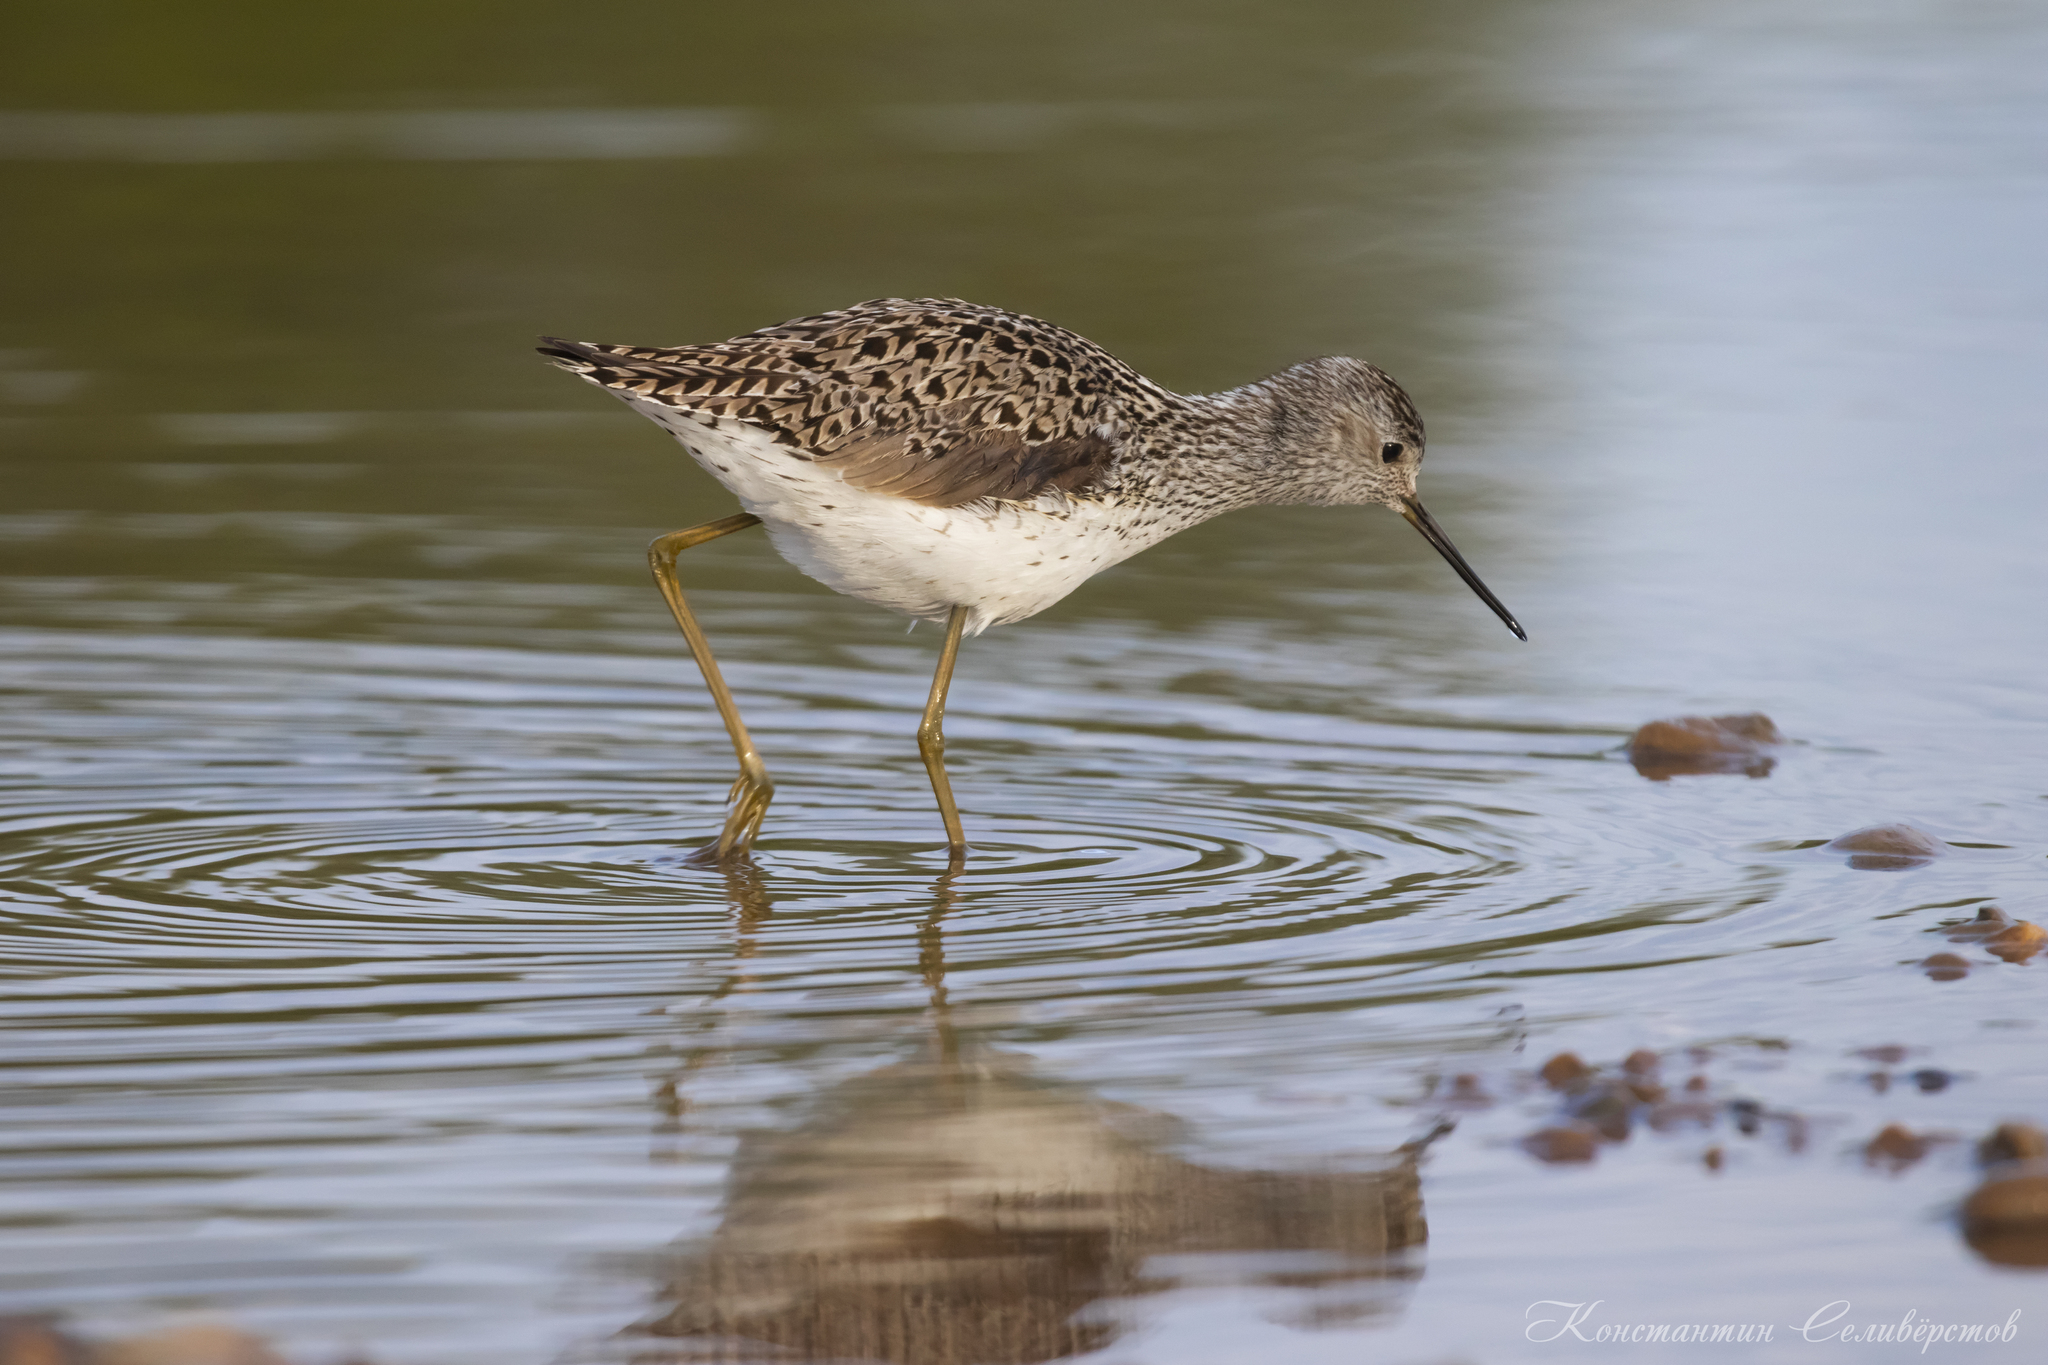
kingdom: Animalia
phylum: Chordata
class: Aves
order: Charadriiformes
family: Scolopacidae
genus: Tringa
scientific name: Tringa stagnatilis
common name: Marsh sandpiper
